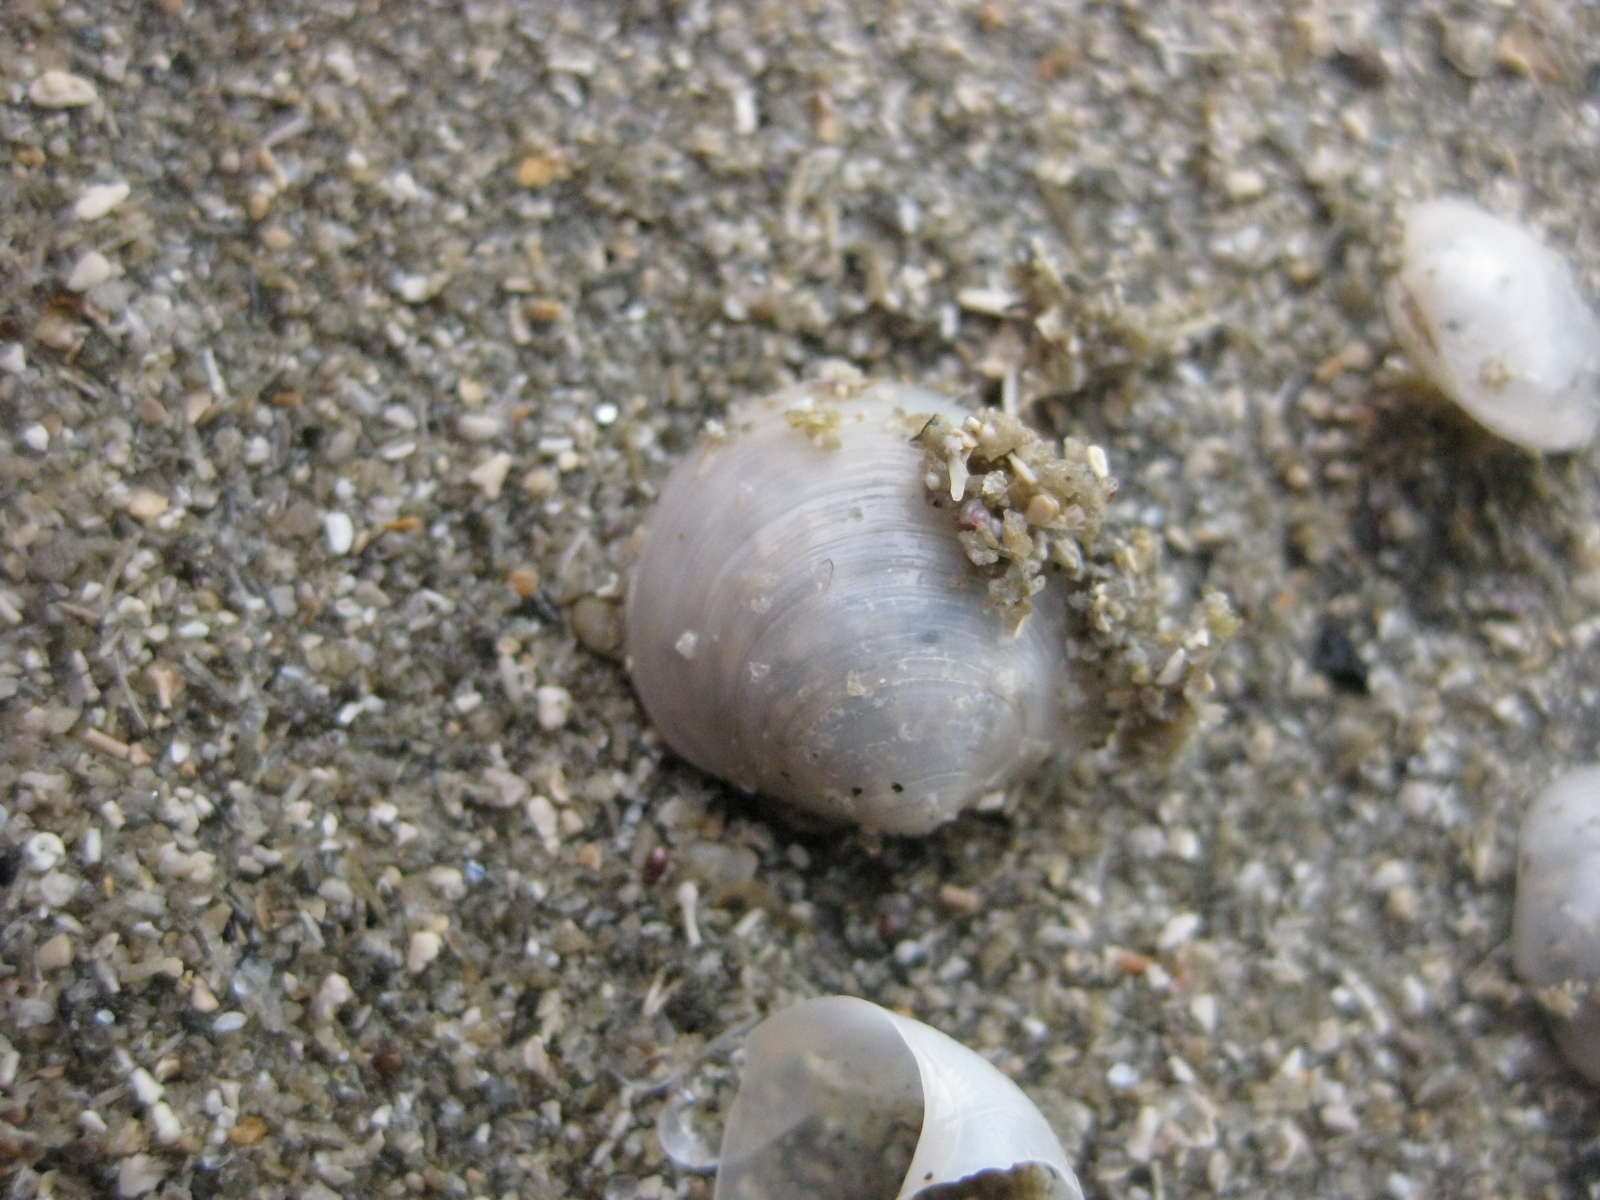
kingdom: Animalia
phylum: Mollusca
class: Bivalvia
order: Venerida
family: Ungulinidae
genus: Zemysina
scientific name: Zemysina striatula
